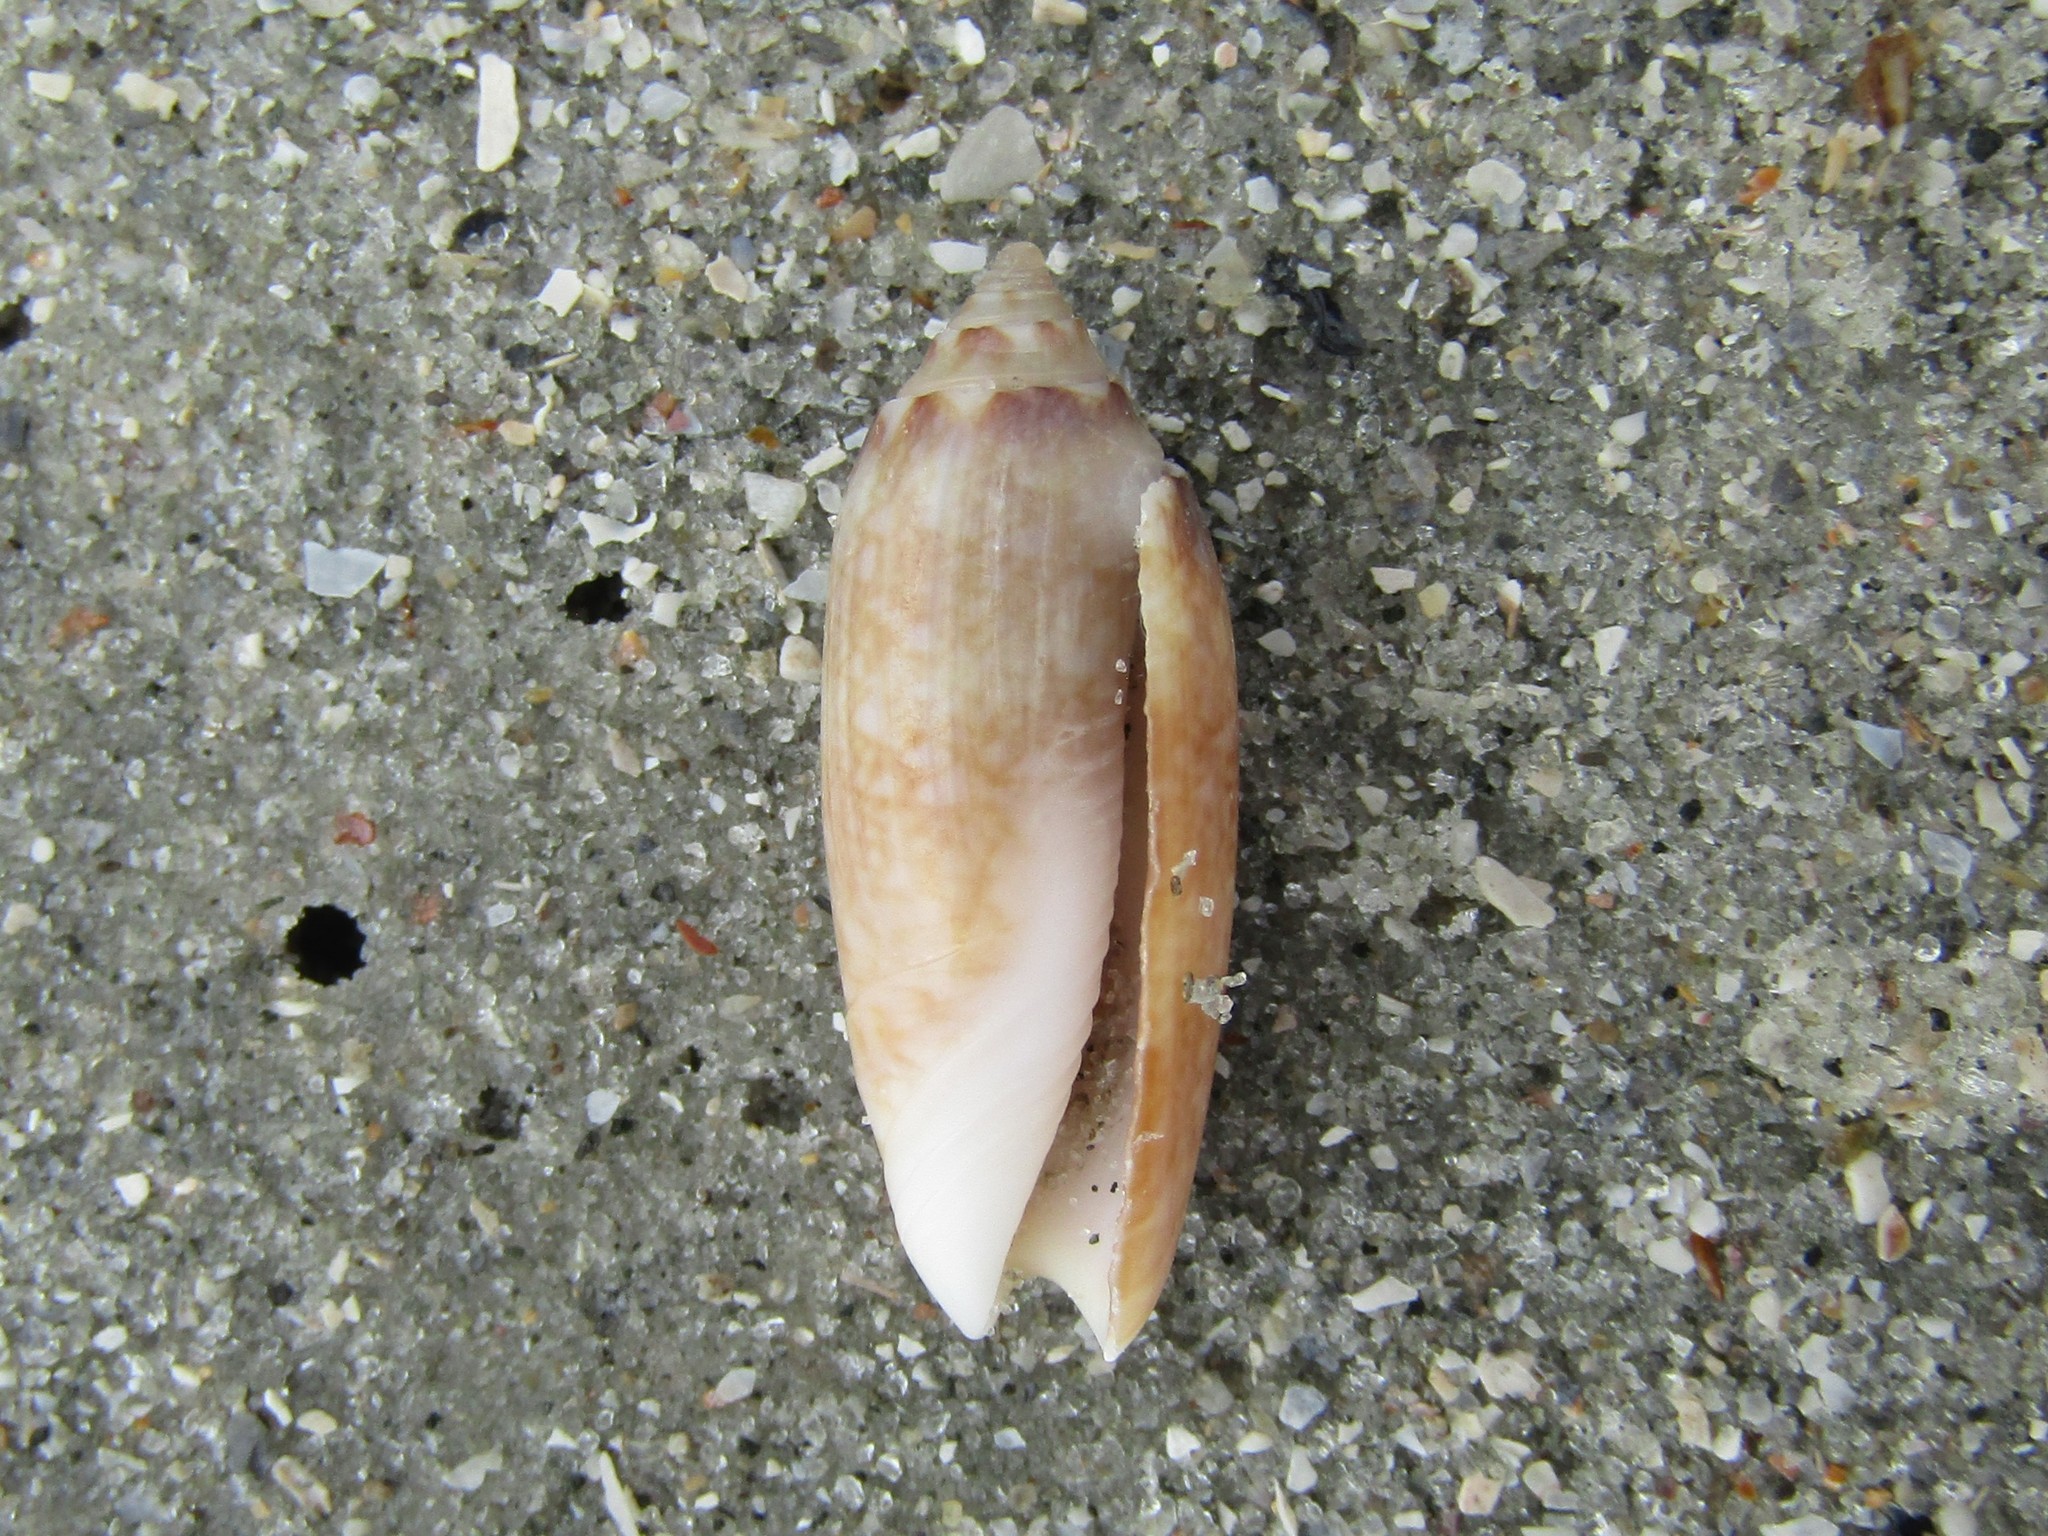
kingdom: Animalia
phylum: Mollusca
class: Gastropoda
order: Neogastropoda
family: Olividae
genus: Oliva
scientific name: Oliva sayana
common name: Lettered olive
